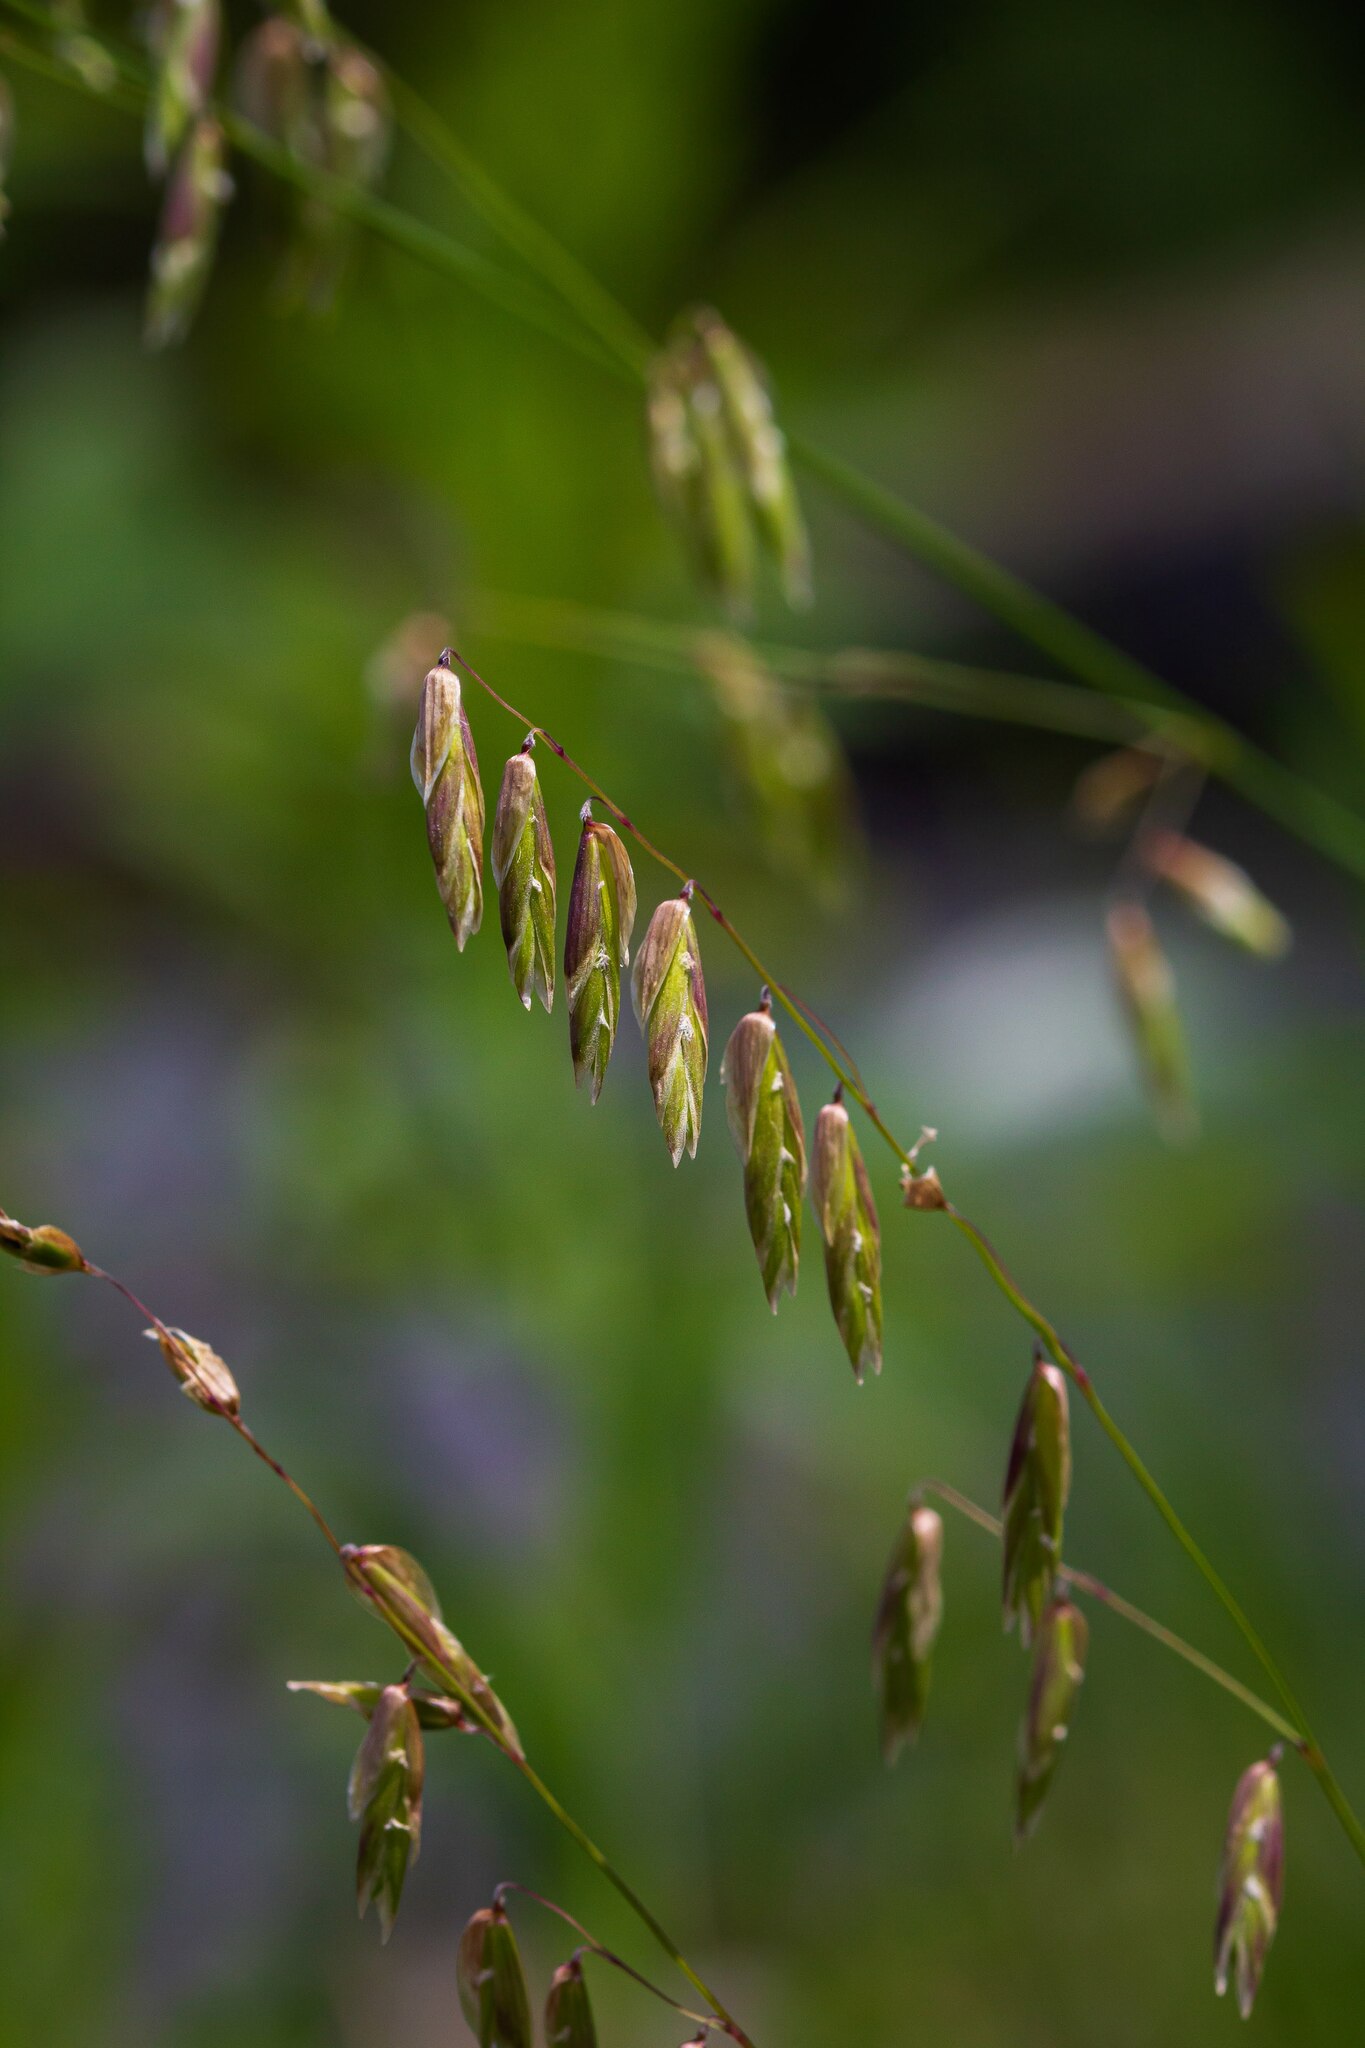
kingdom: Plantae
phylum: Tracheophyta
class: Liliopsida
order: Poales
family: Poaceae
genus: Melica
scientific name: Melica nitens
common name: Three-flower melic
